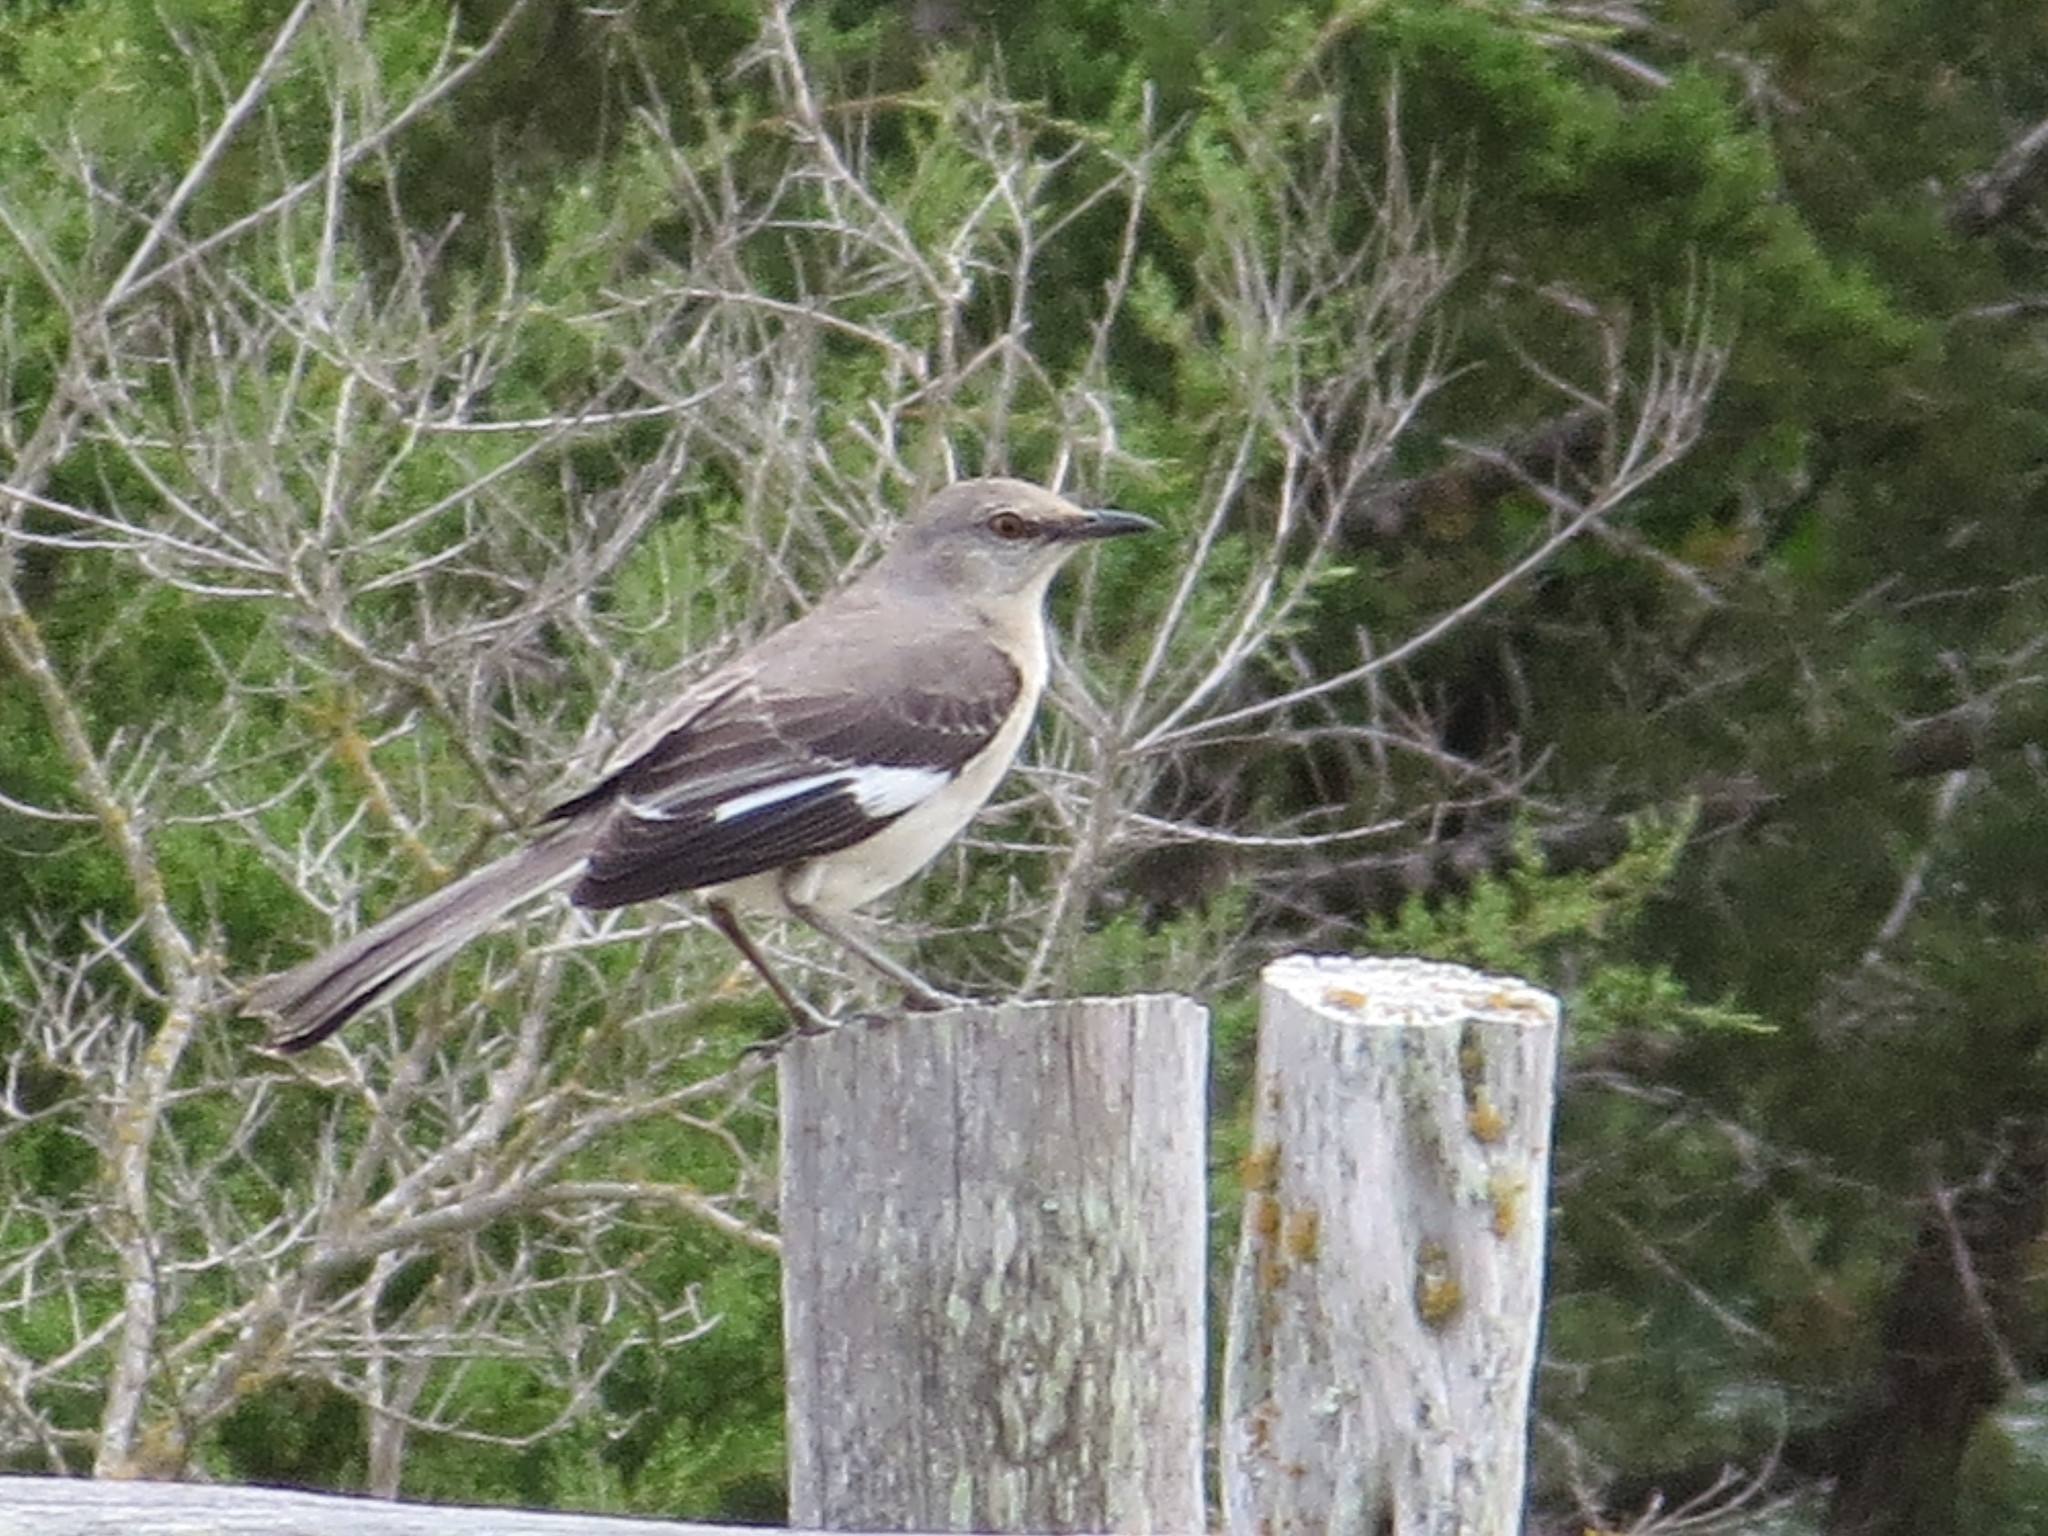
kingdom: Animalia
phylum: Chordata
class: Aves
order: Passeriformes
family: Mimidae
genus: Mimus
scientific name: Mimus polyglottos
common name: Northern mockingbird
